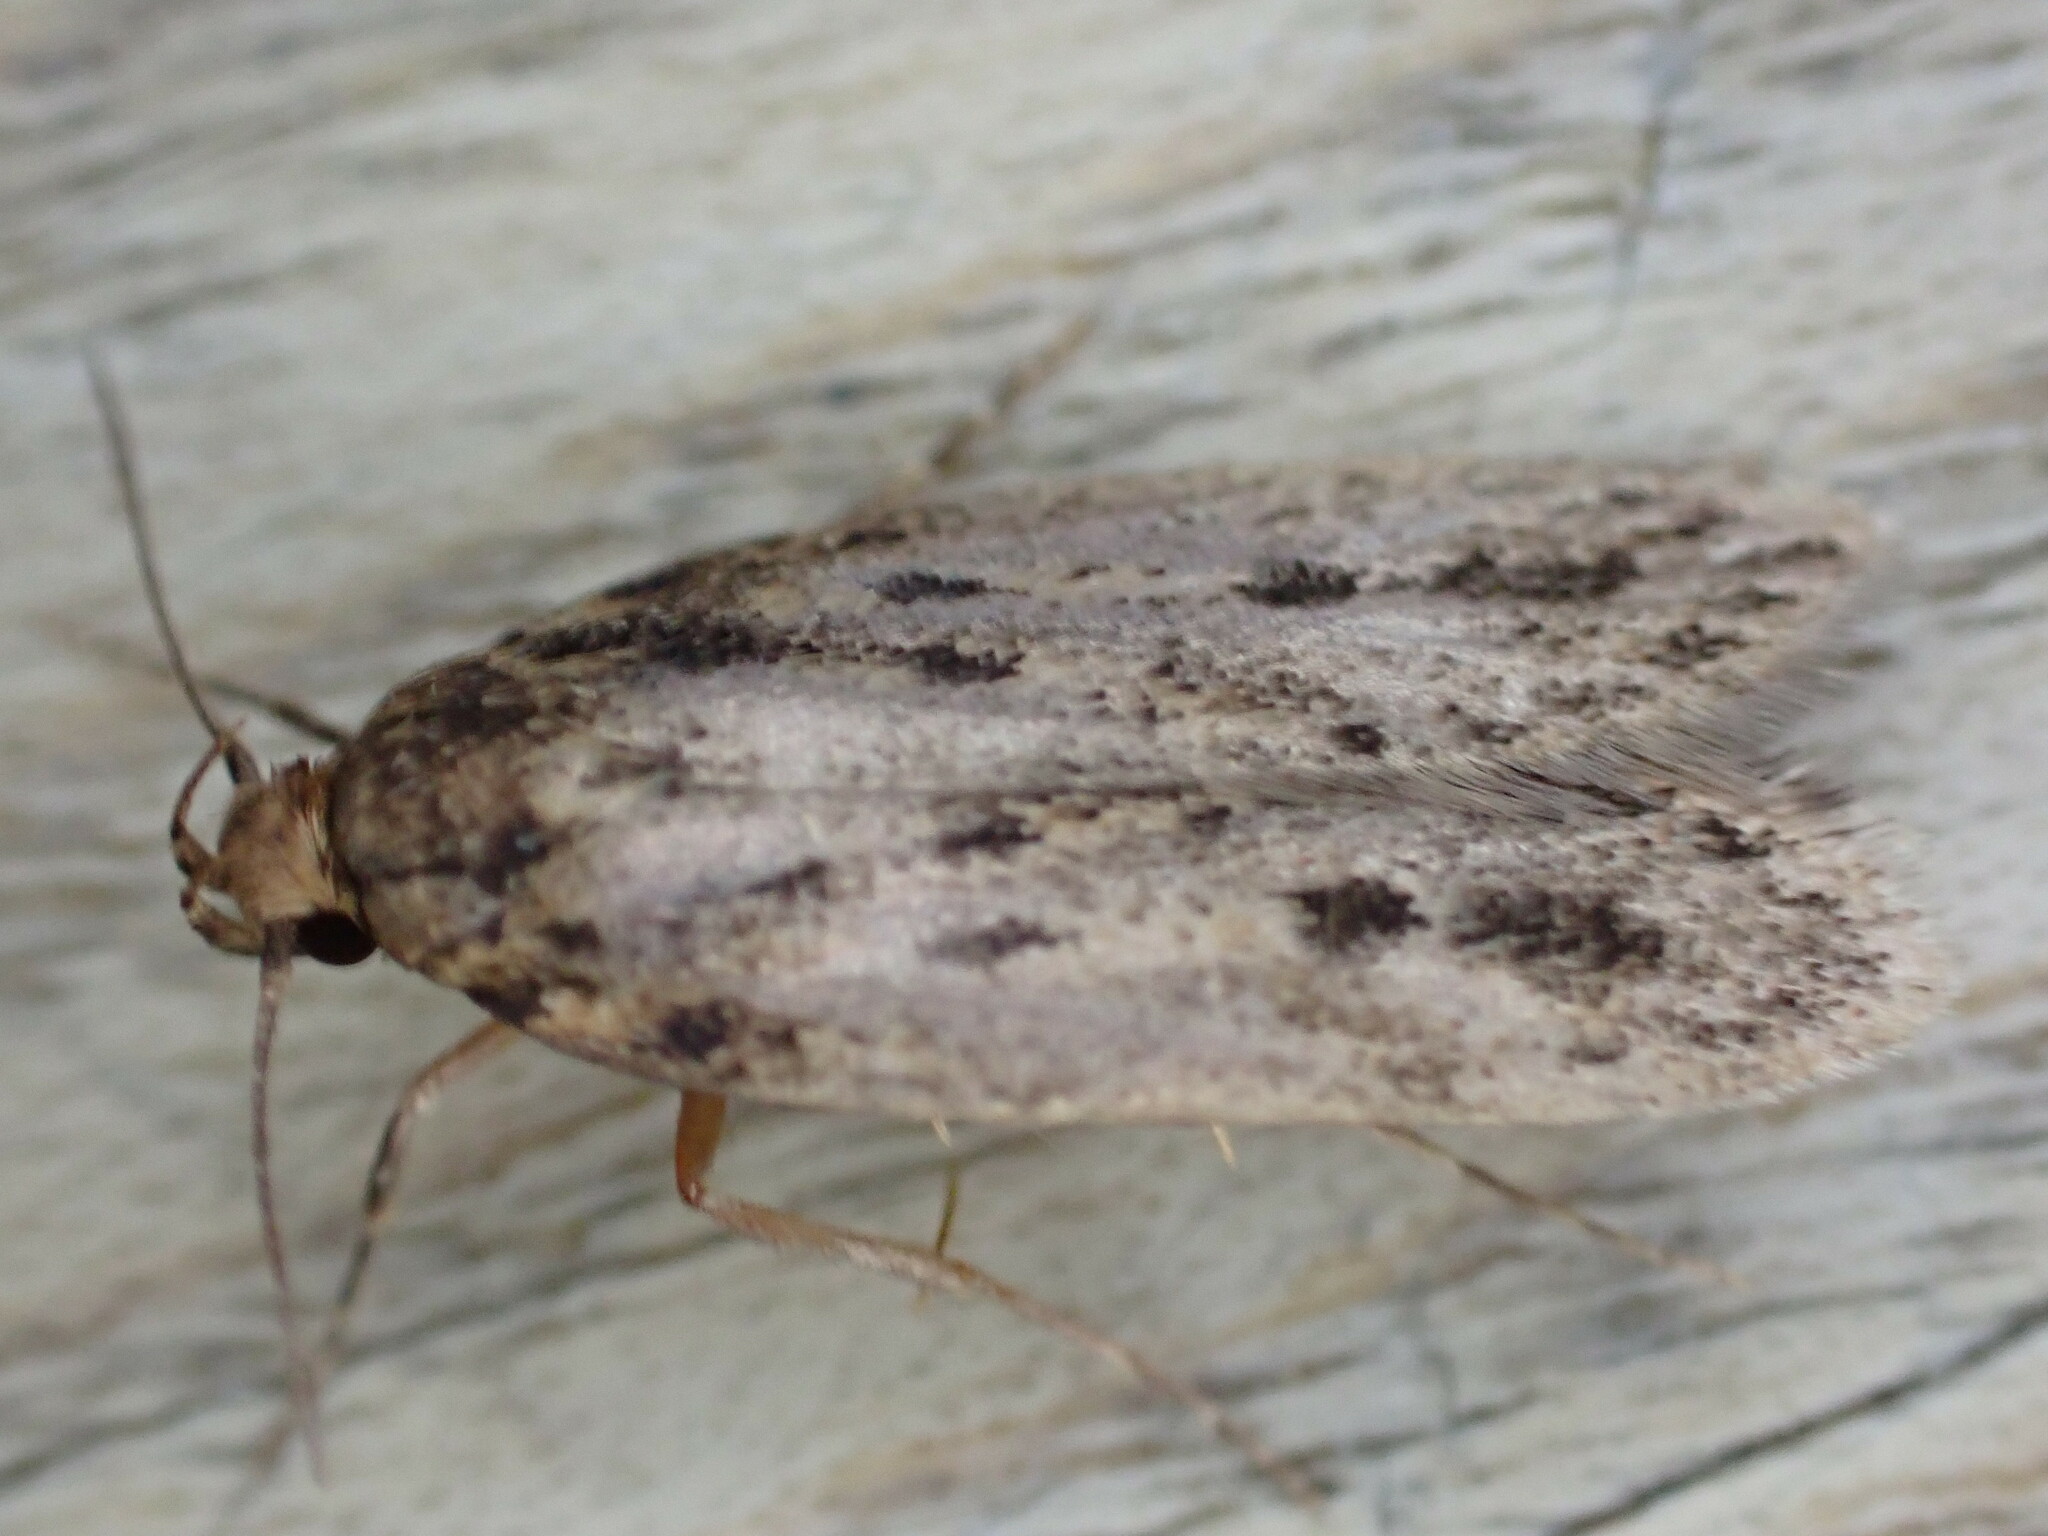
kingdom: Animalia
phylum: Arthropoda
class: Insecta
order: Lepidoptera
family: Oecophoridae
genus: Hofmannophila
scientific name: Hofmannophila pseudospretella
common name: Brown house moth
